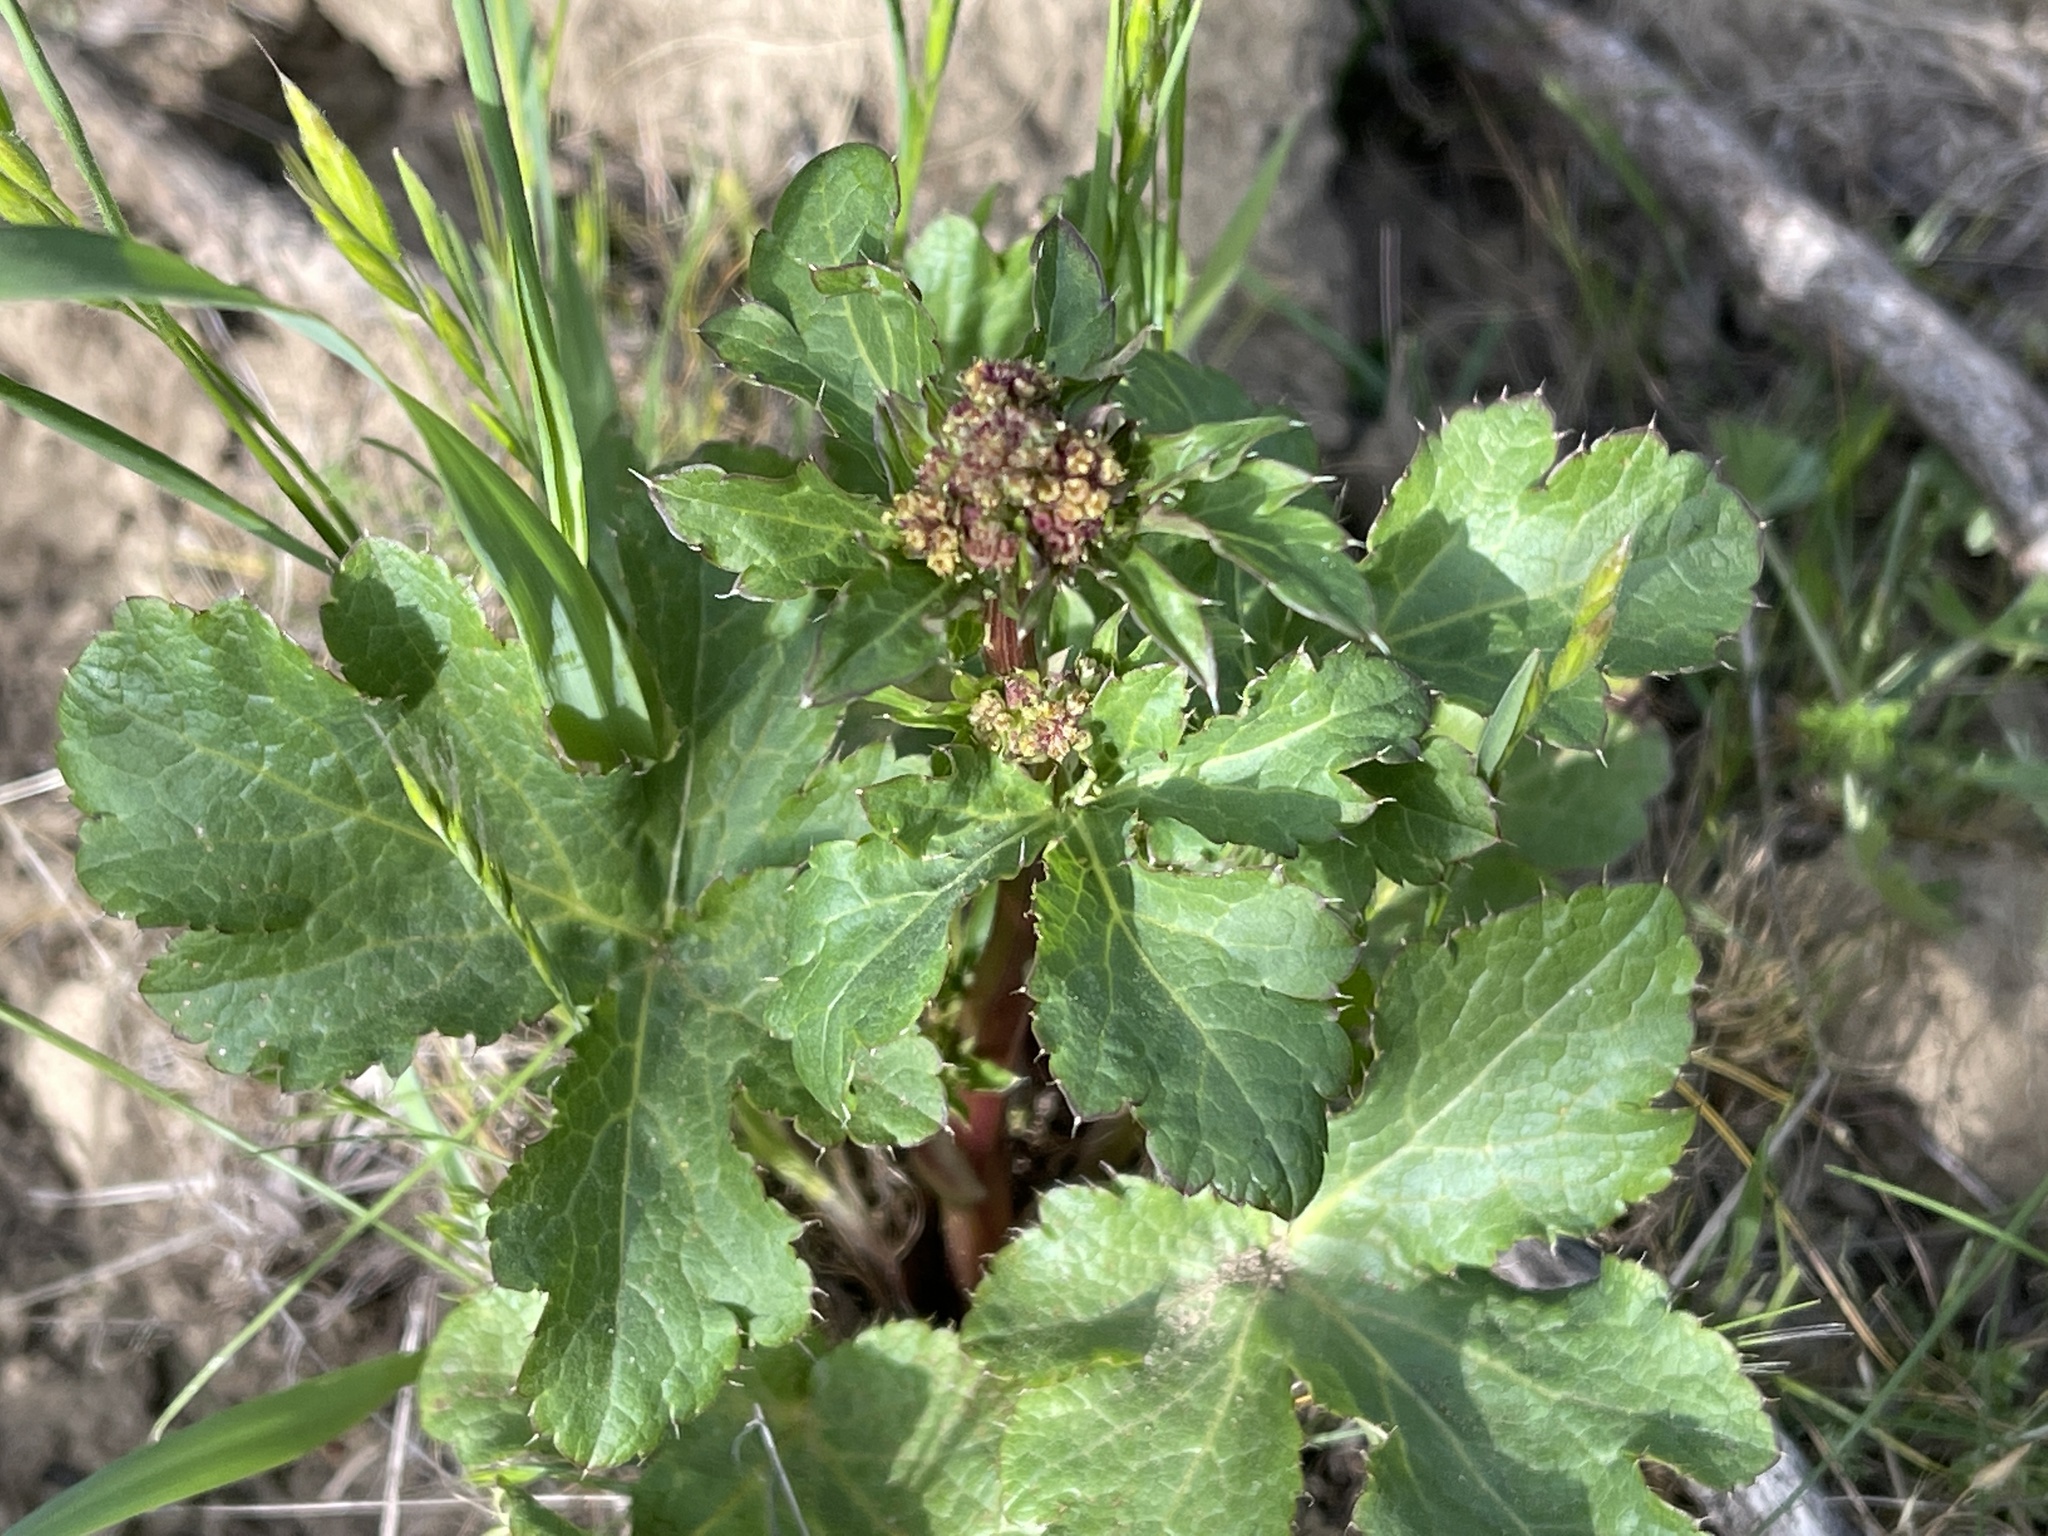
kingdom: Plantae
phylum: Tracheophyta
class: Magnoliopsida
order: Apiales
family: Apiaceae
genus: Sanicula
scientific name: Sanicula crassicaulis
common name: Western snakeroot
